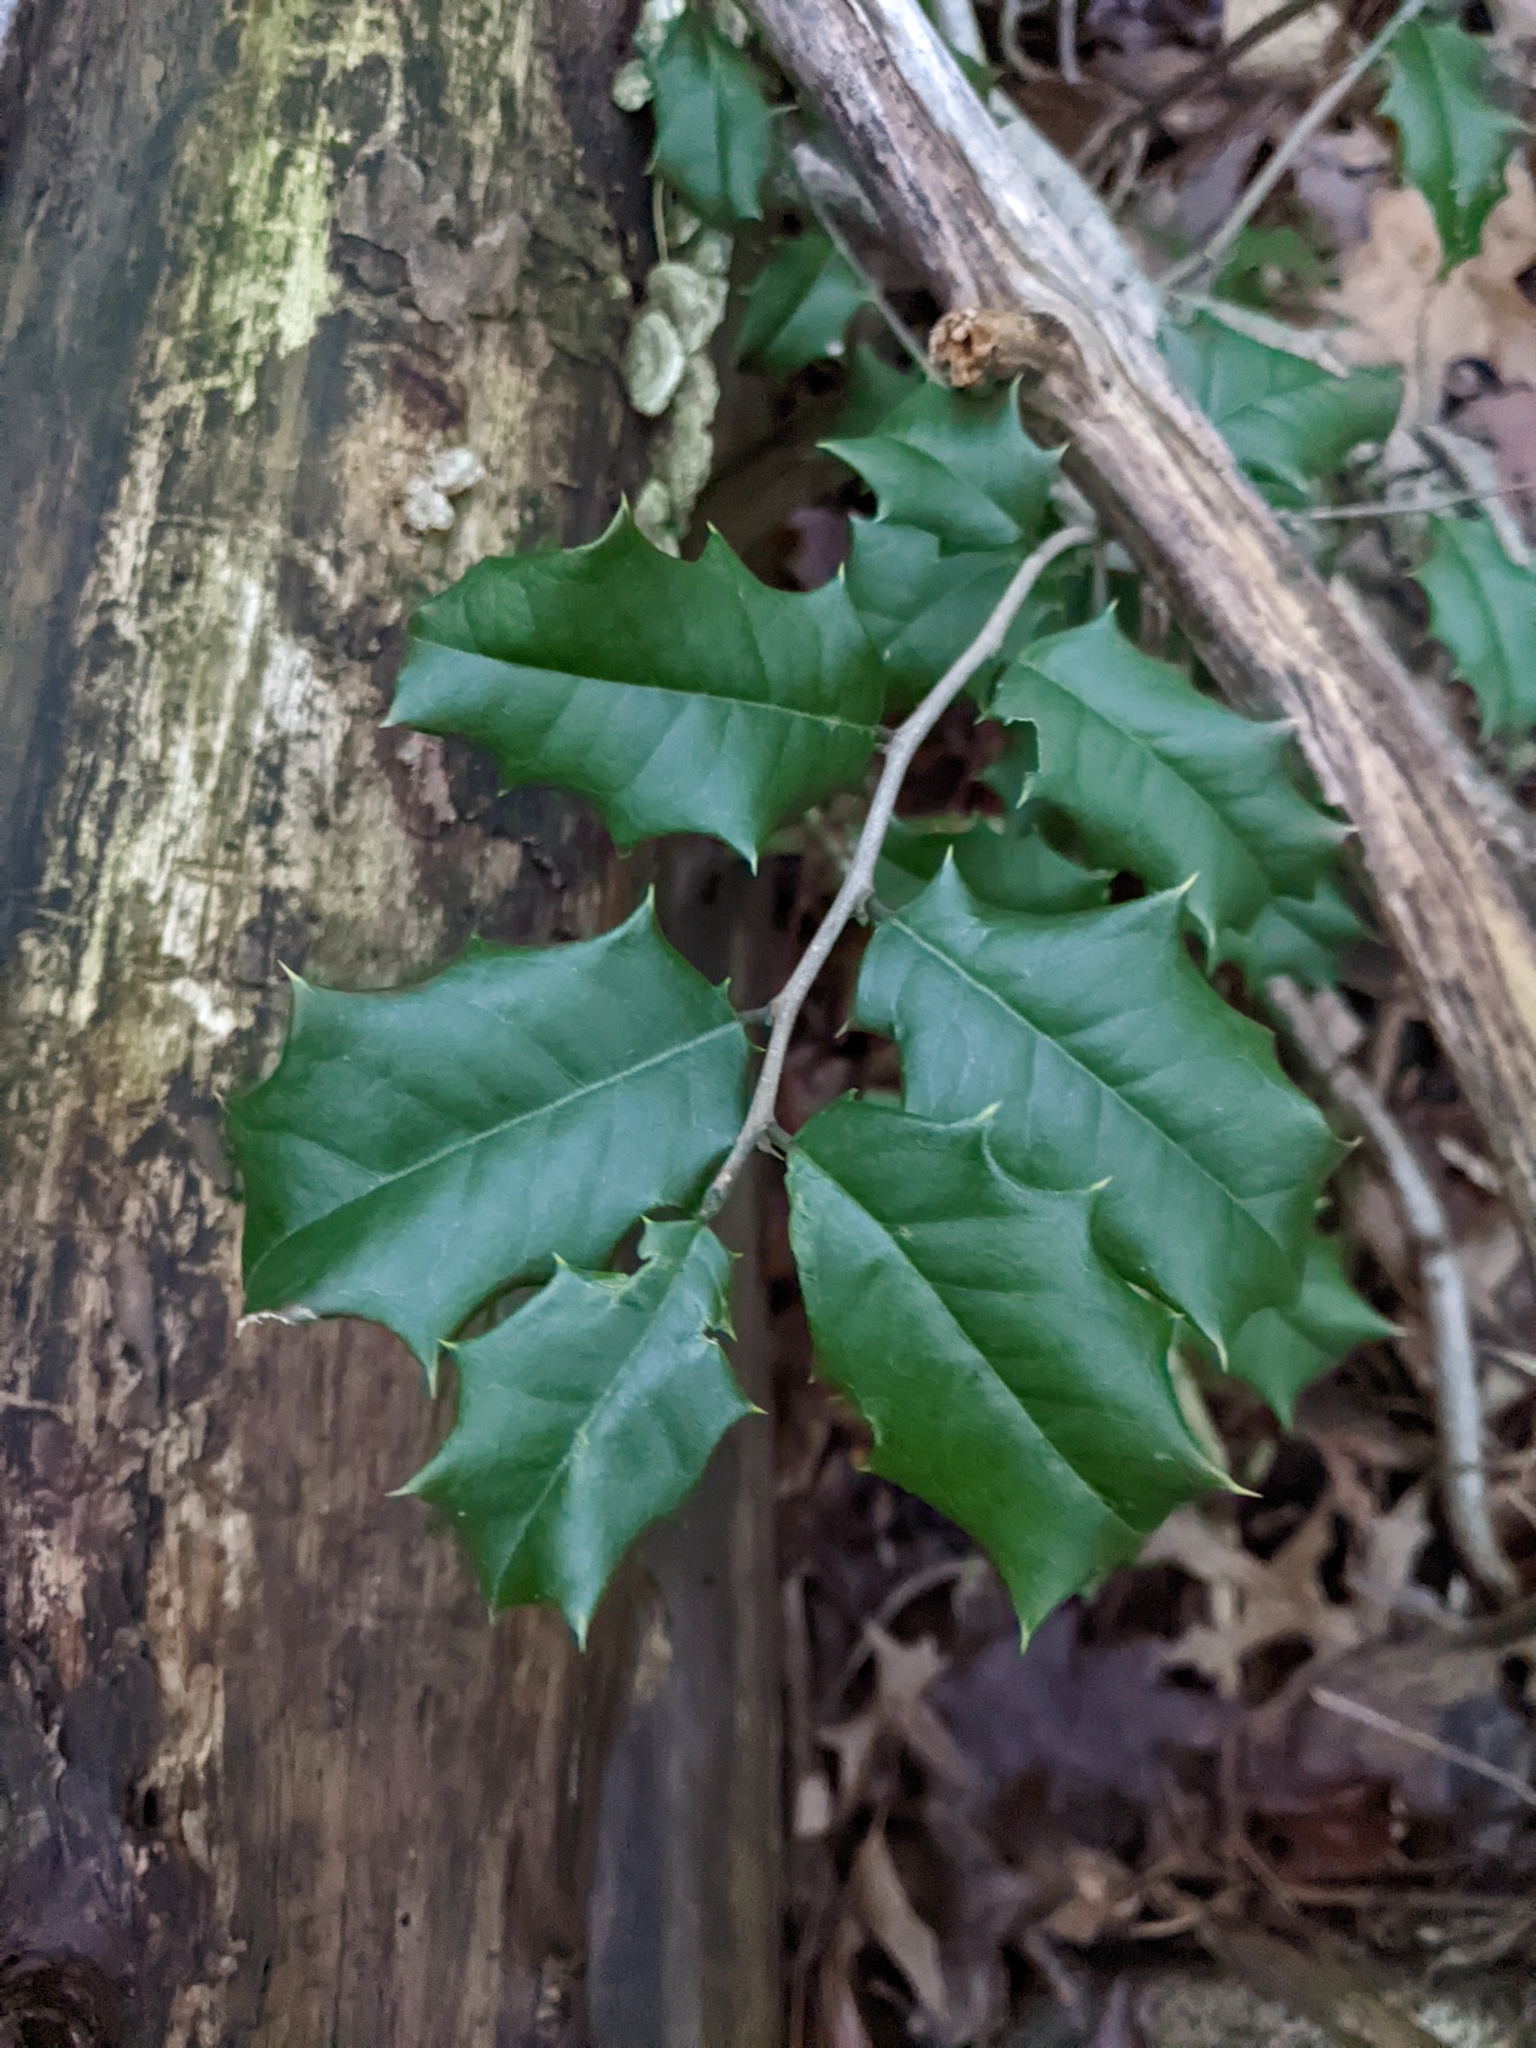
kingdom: Plantae
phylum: Tracheophyta
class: Magnoliopsida
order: Aquifoliales
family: Aquifoliaceae
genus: Ilex
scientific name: Ilex opaca
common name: American holly
